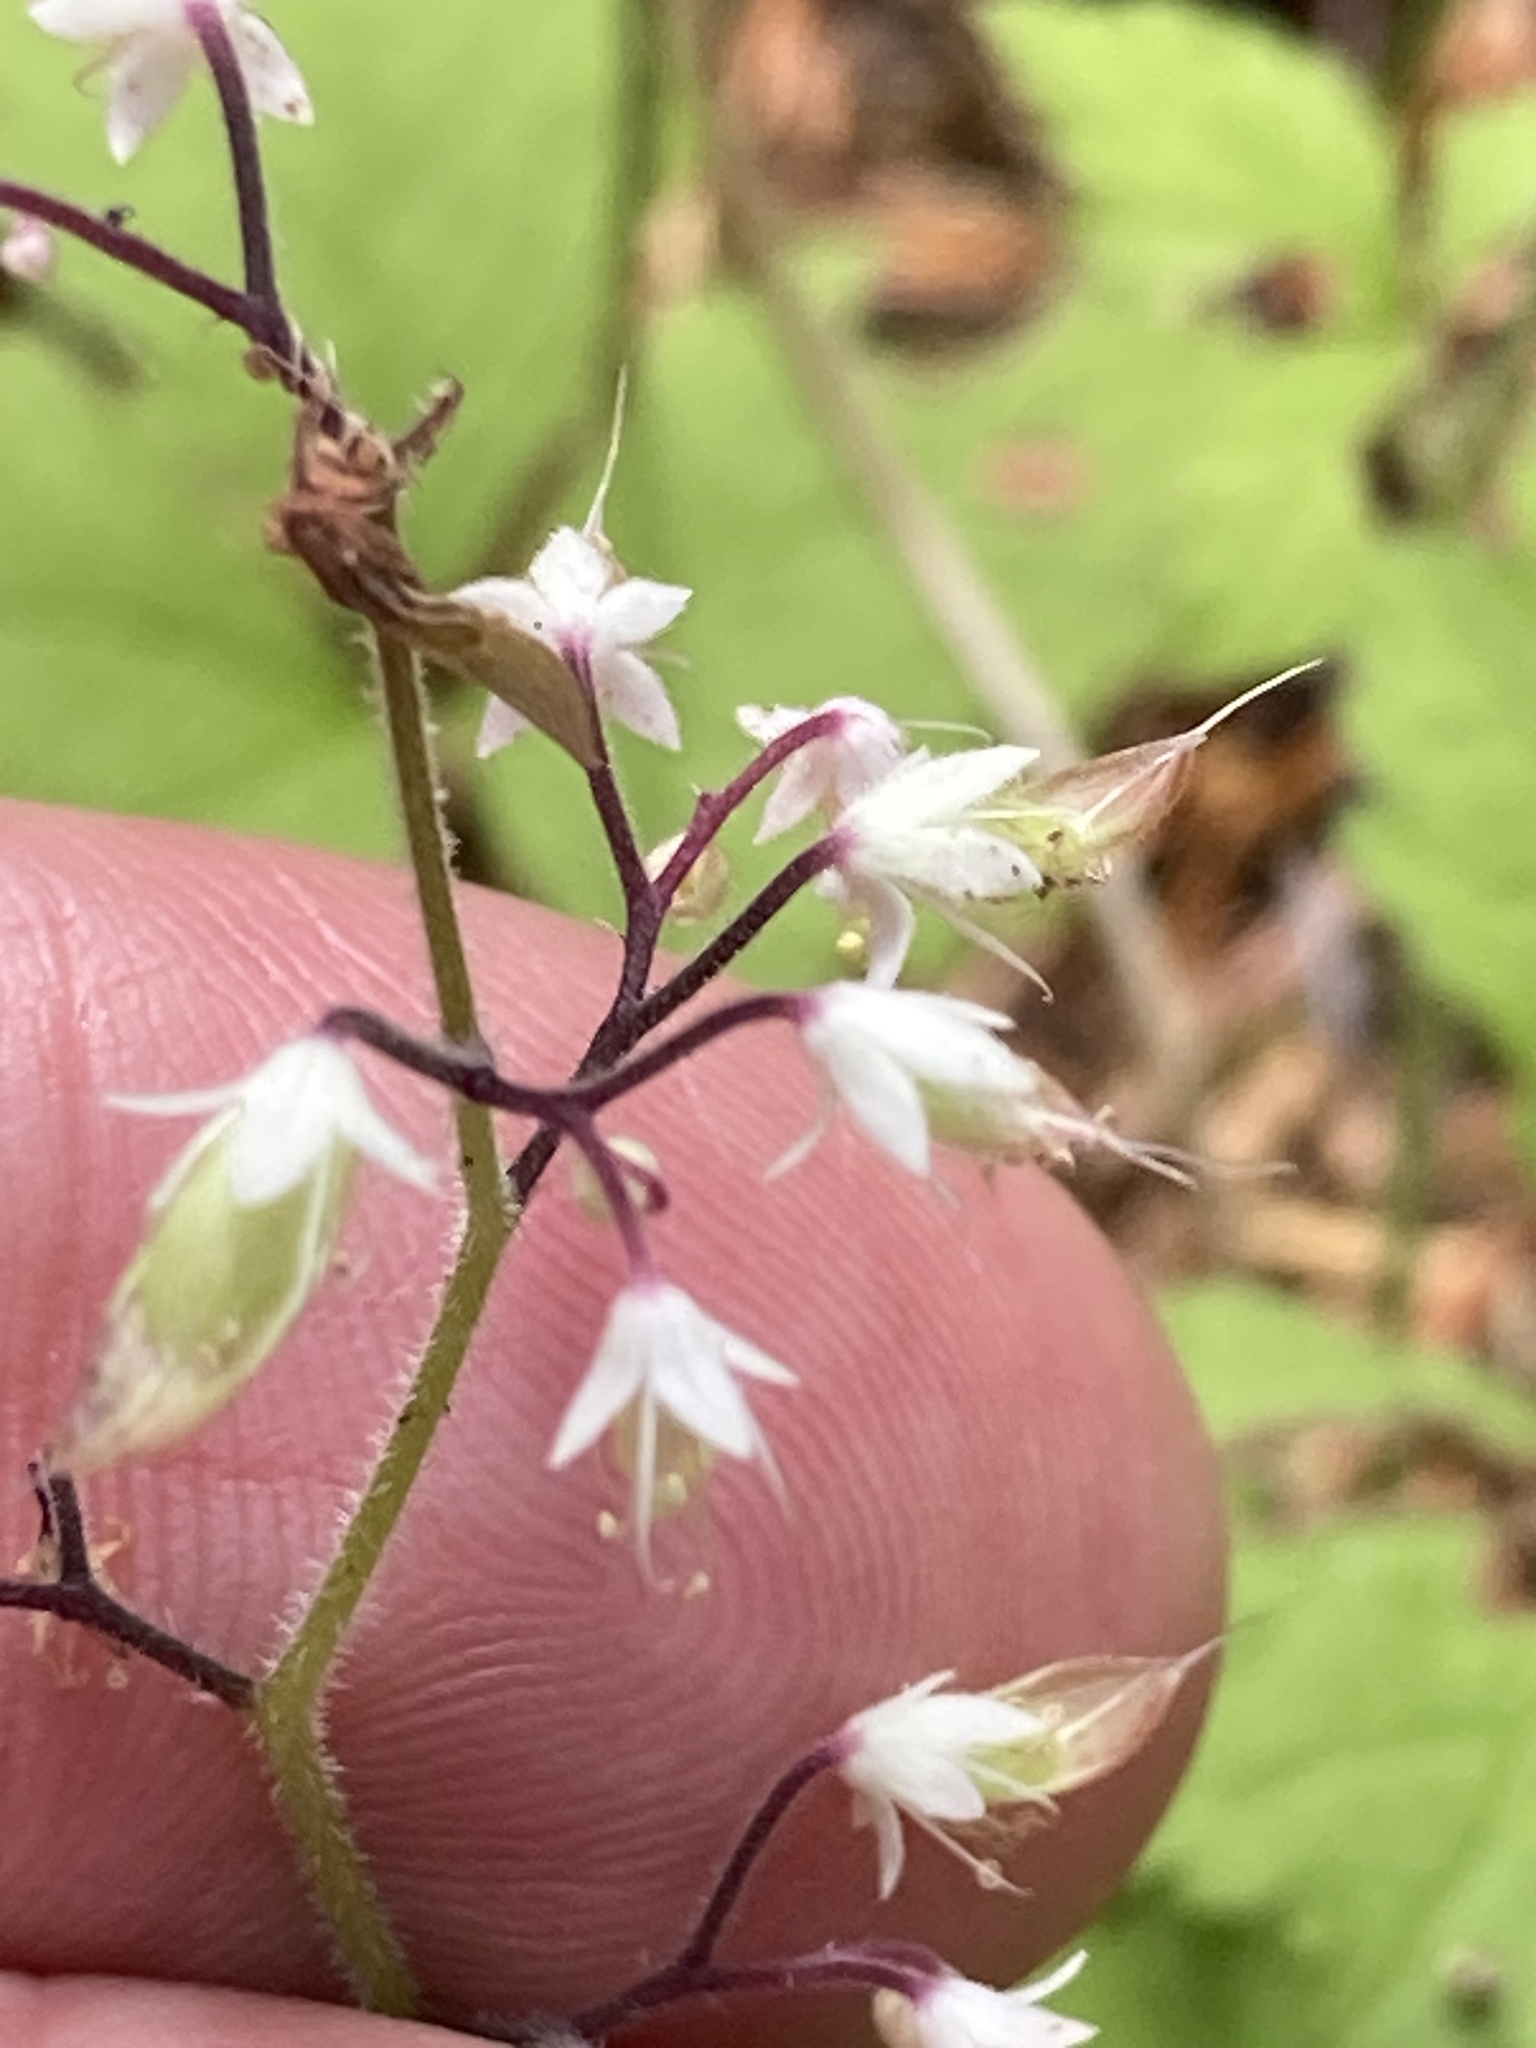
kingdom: Plantae
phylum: Tracheophyta
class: Magnoliopsida
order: Saxifragales
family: Saxifragaceae
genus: Tiarella
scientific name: Tiarella trifoliata
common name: Sugar-scoop
